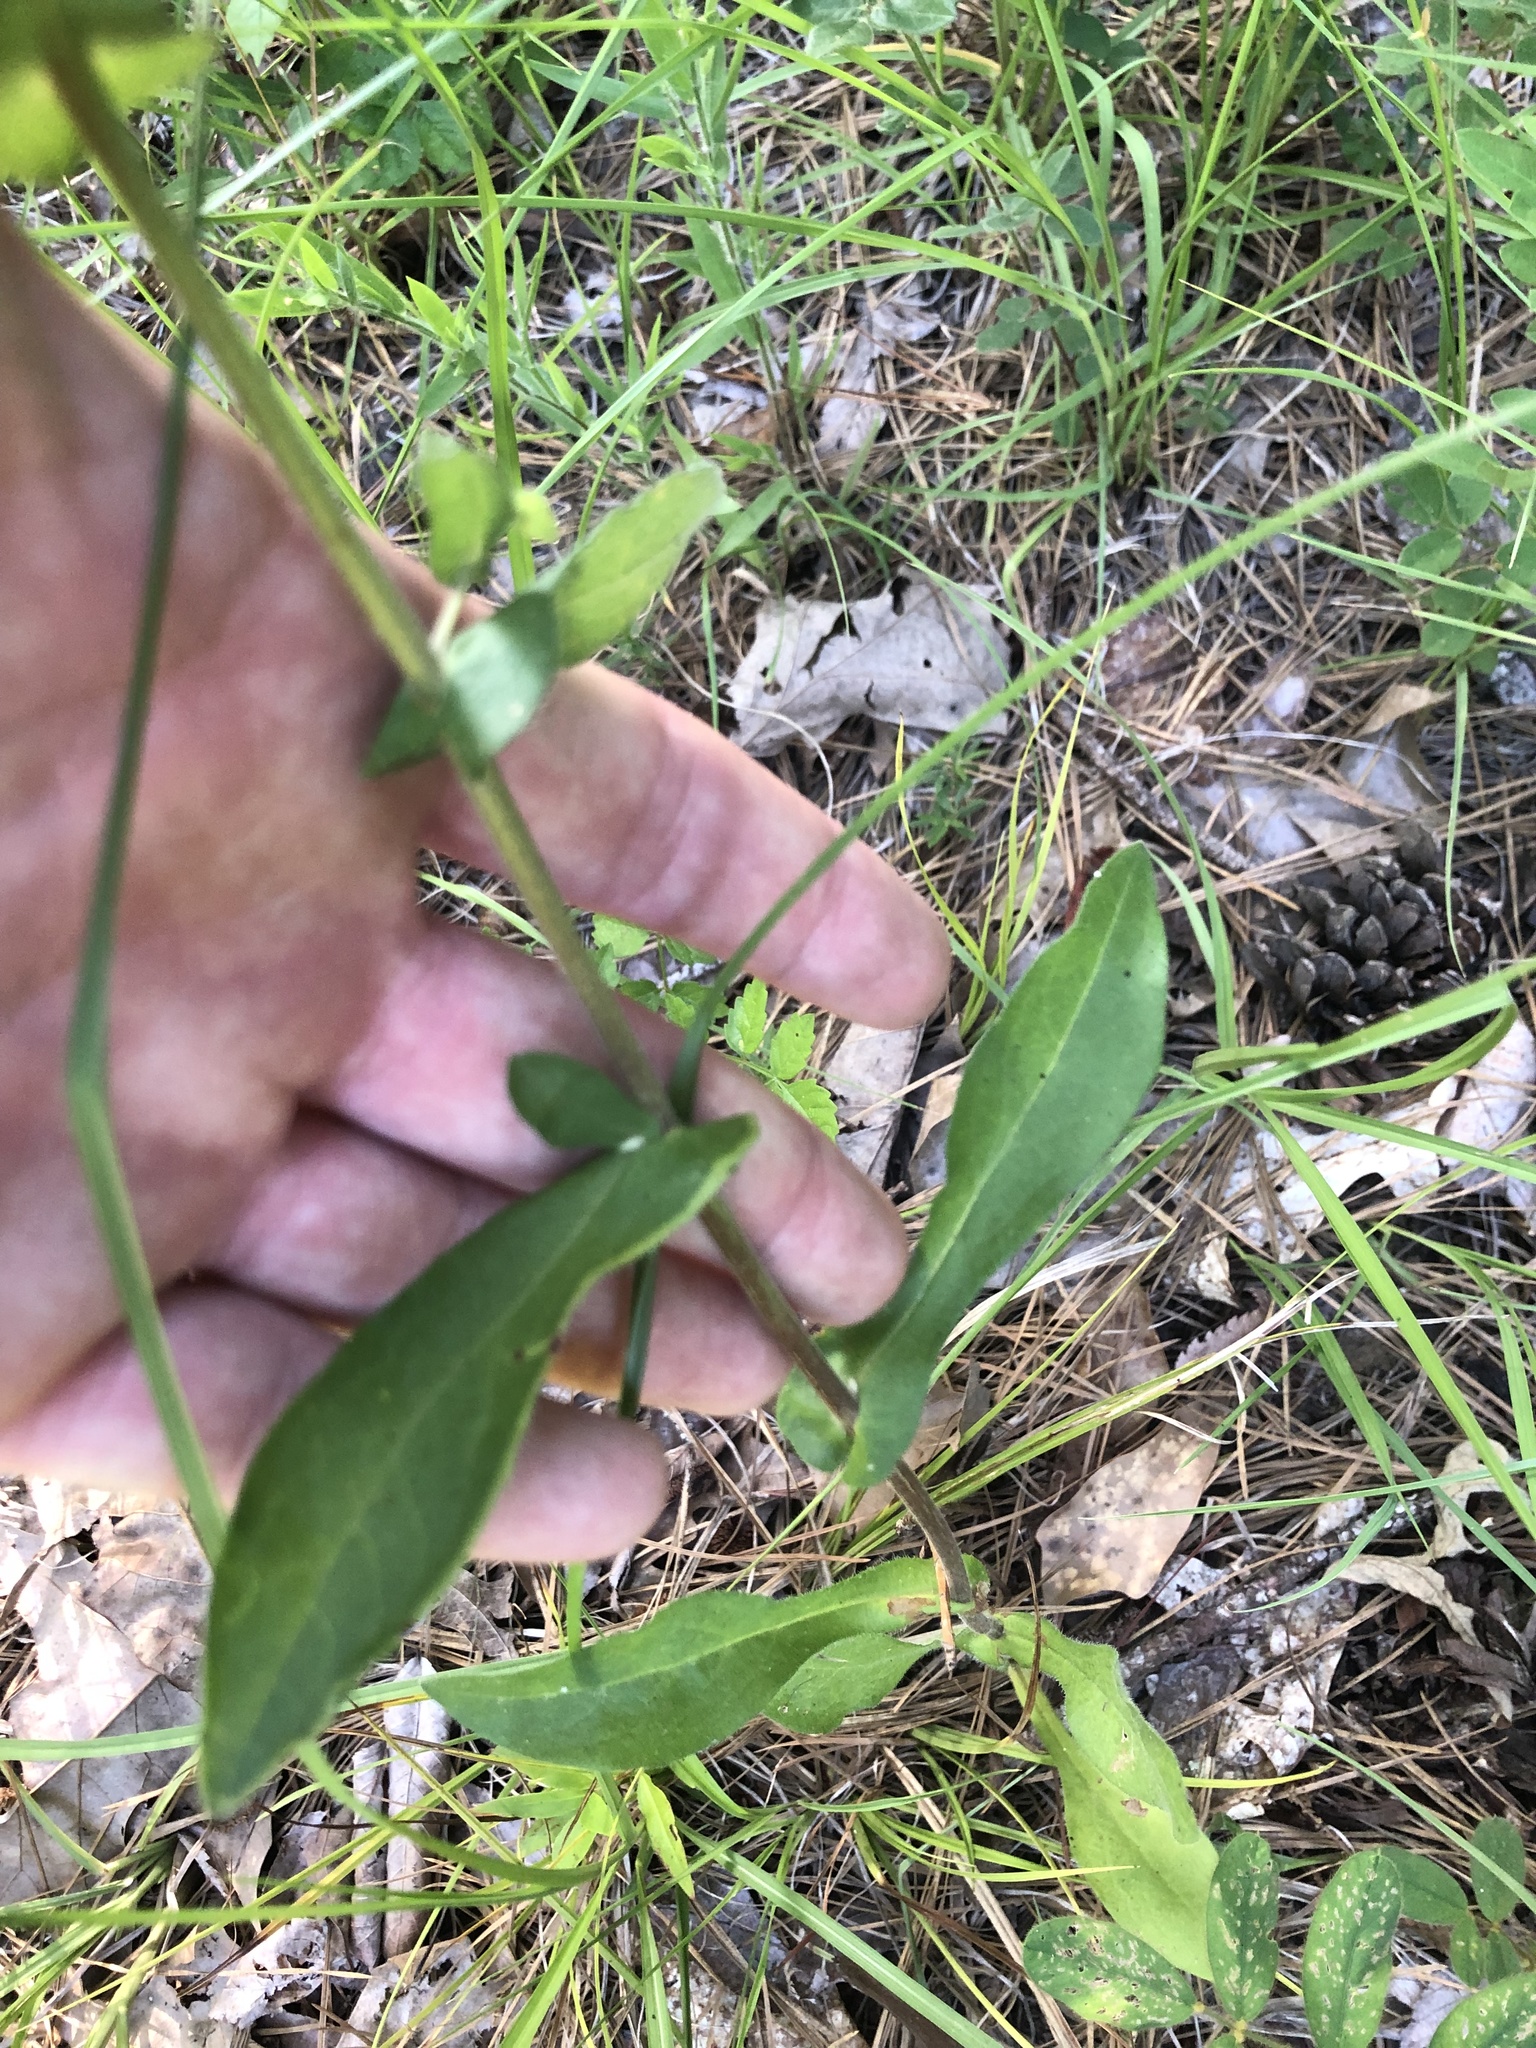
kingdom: Plantae
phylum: Tracheophyta
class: Magnoliopsida
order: Asterales
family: Asteraceae
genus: Symphyotrichum
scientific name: Symphyotrichum patens
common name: Late purple aster
